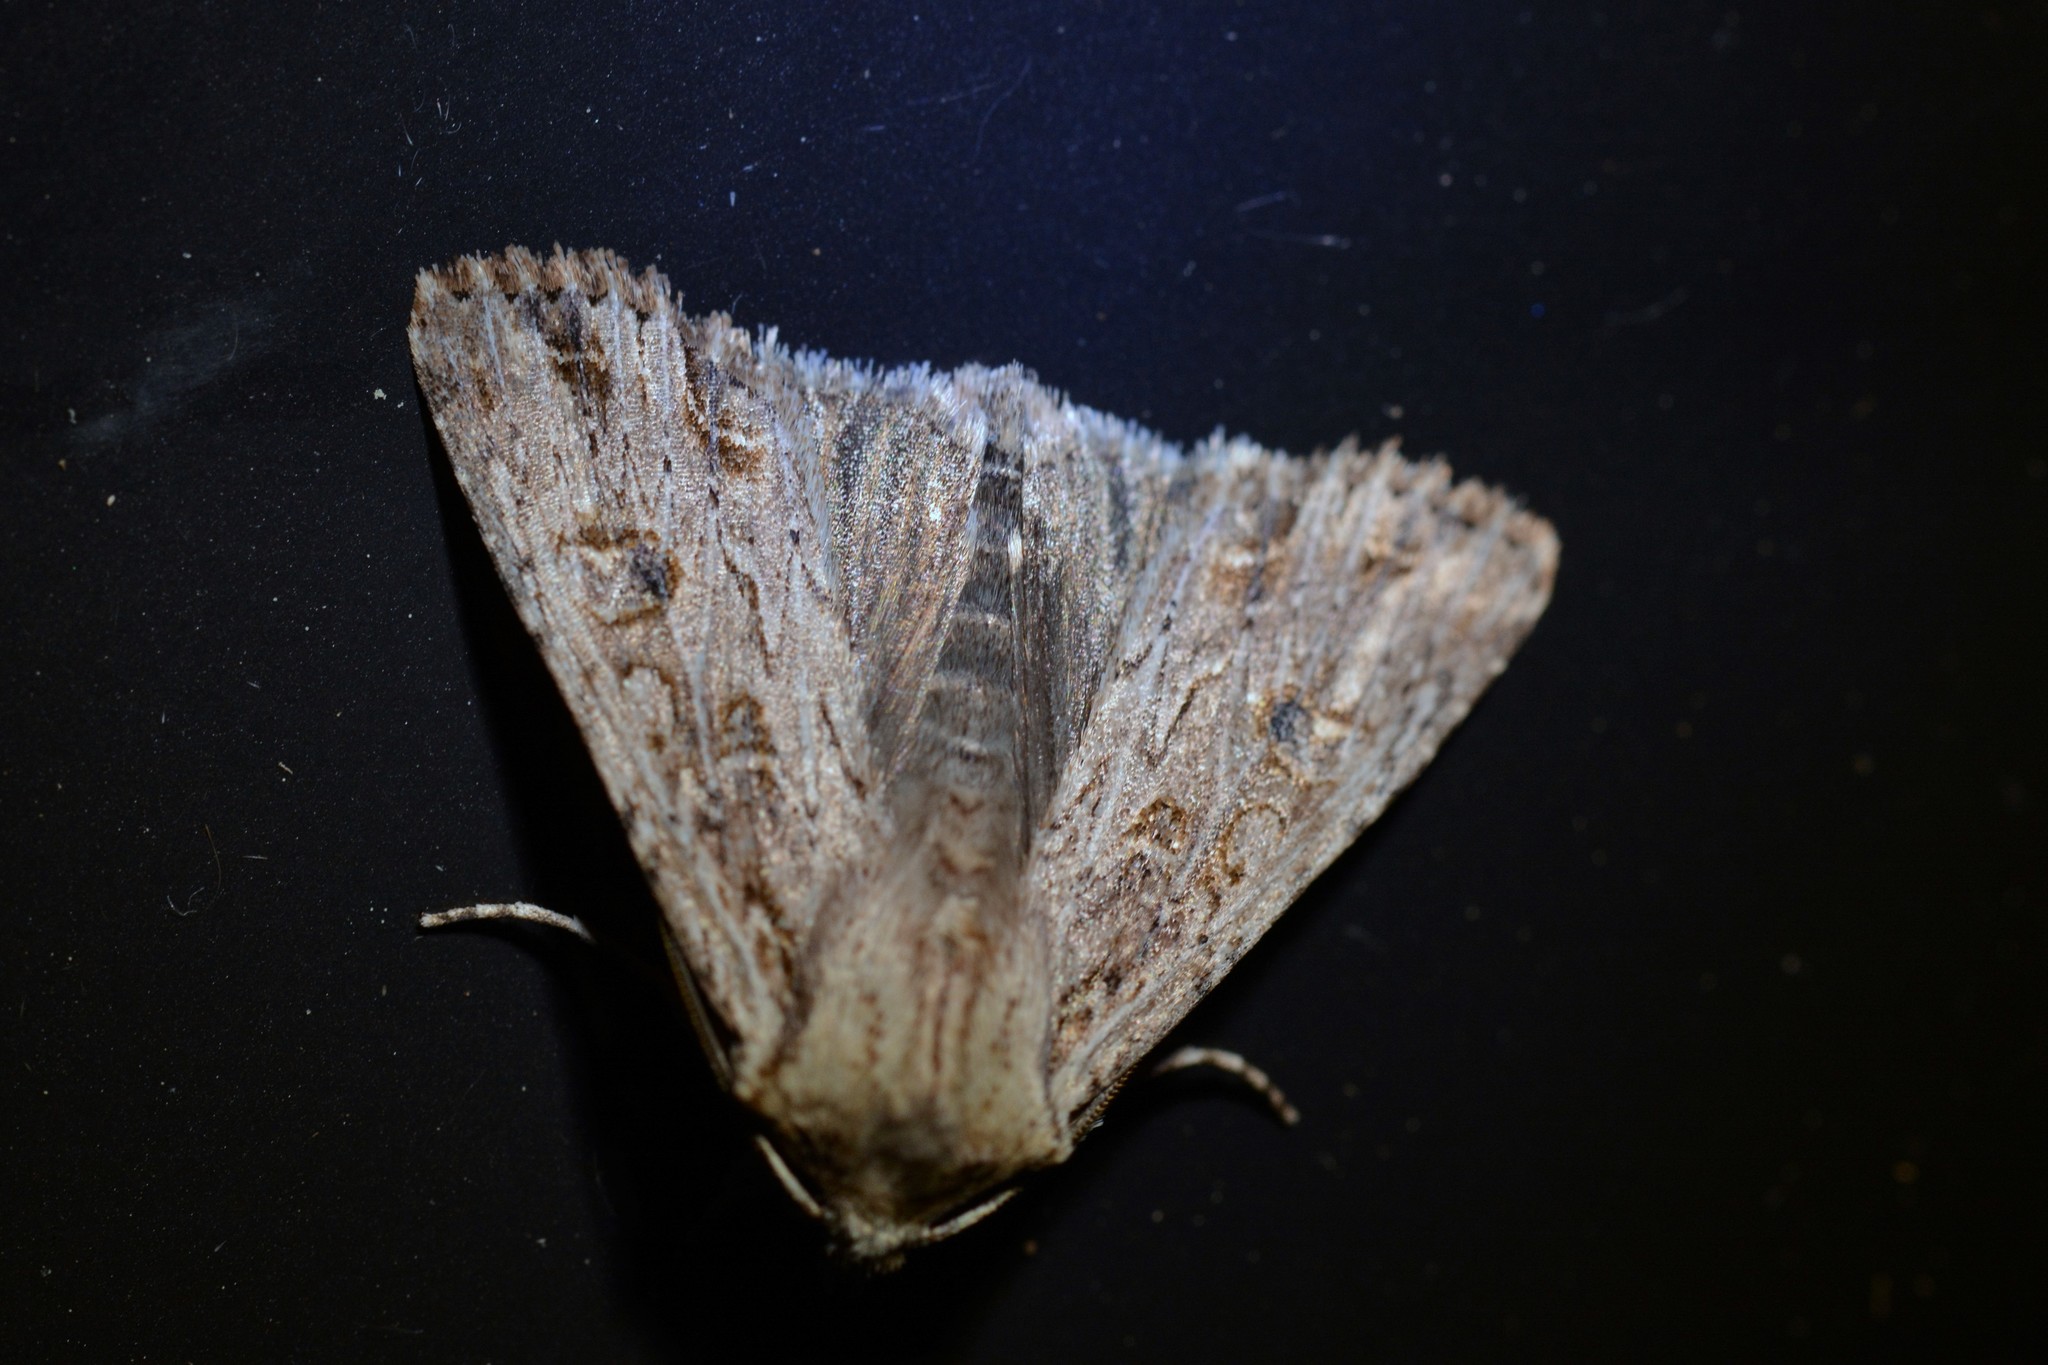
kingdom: Animalia
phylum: Arthropoda
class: Insecta
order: Lepidoptera
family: Noctuidae
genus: Ichneutica
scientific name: Ichneutica lignana
